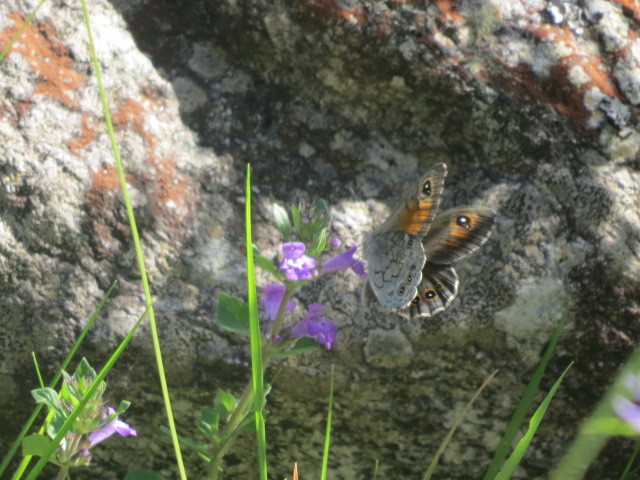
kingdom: Animalia
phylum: Arthropoda
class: Insecta
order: Lepidoptera
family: Nymphalidae
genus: Pararge
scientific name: Pararge Lasiommata maera
